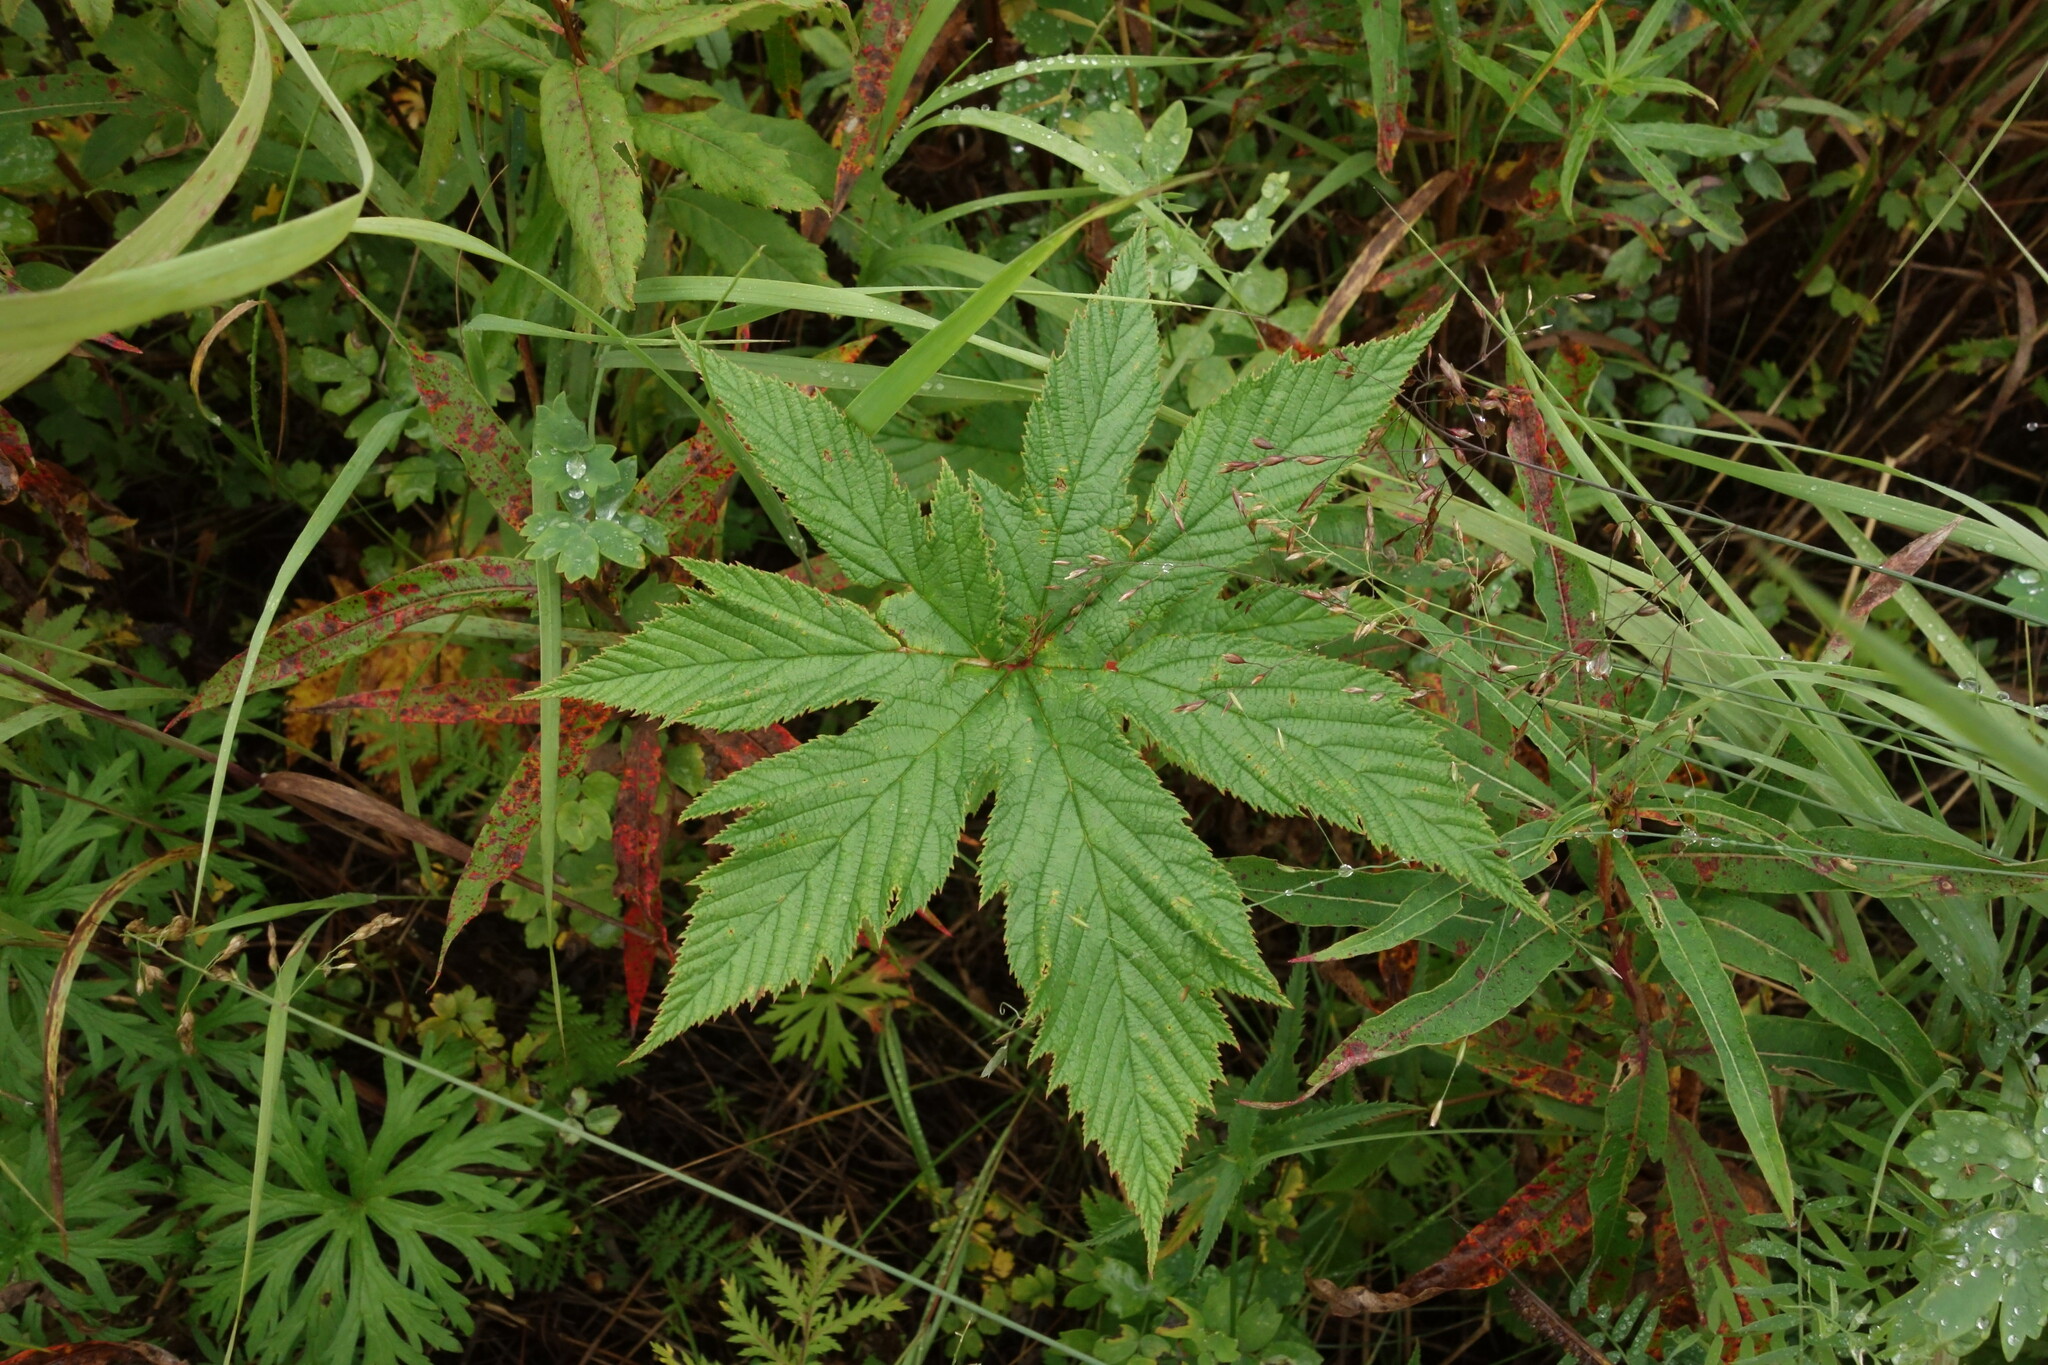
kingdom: Plantae
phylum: Tracheophyta
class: Magnoliopsida
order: Rosales
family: Rosaceae
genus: Filipendula
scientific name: Filipendula digitata
